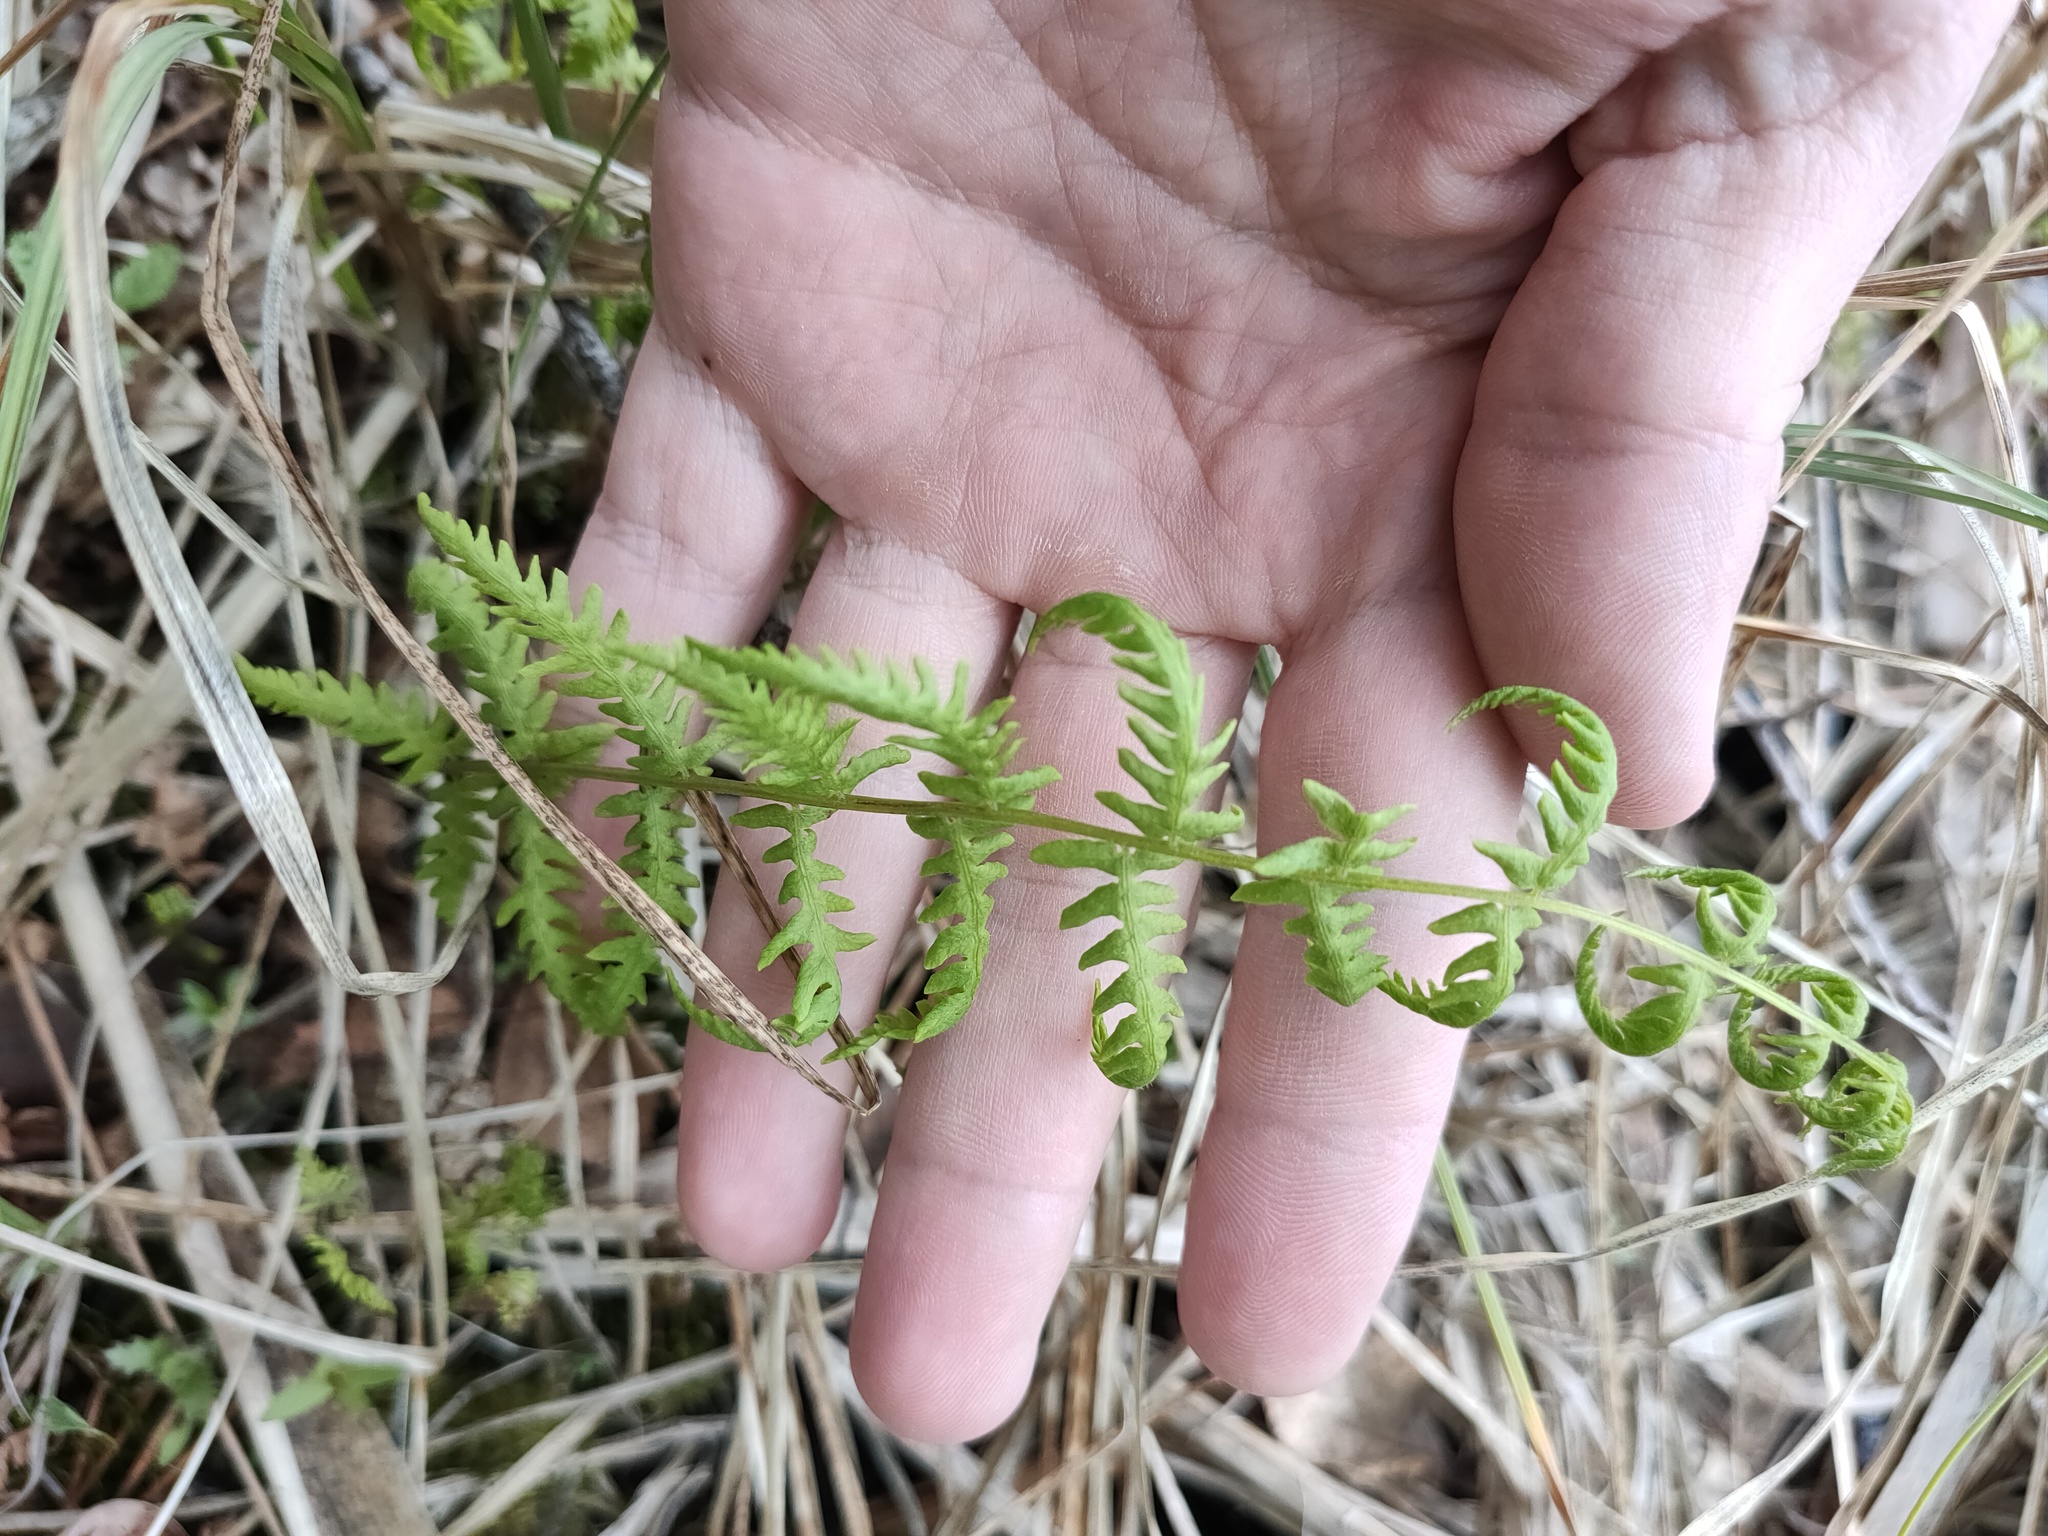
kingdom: Plantae
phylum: Tracheophyta
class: Polypodiopsida
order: Polypodiales
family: Thelypteridaceae
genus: Thelypteris
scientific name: Thelypteris palustris
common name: Marsh fern
